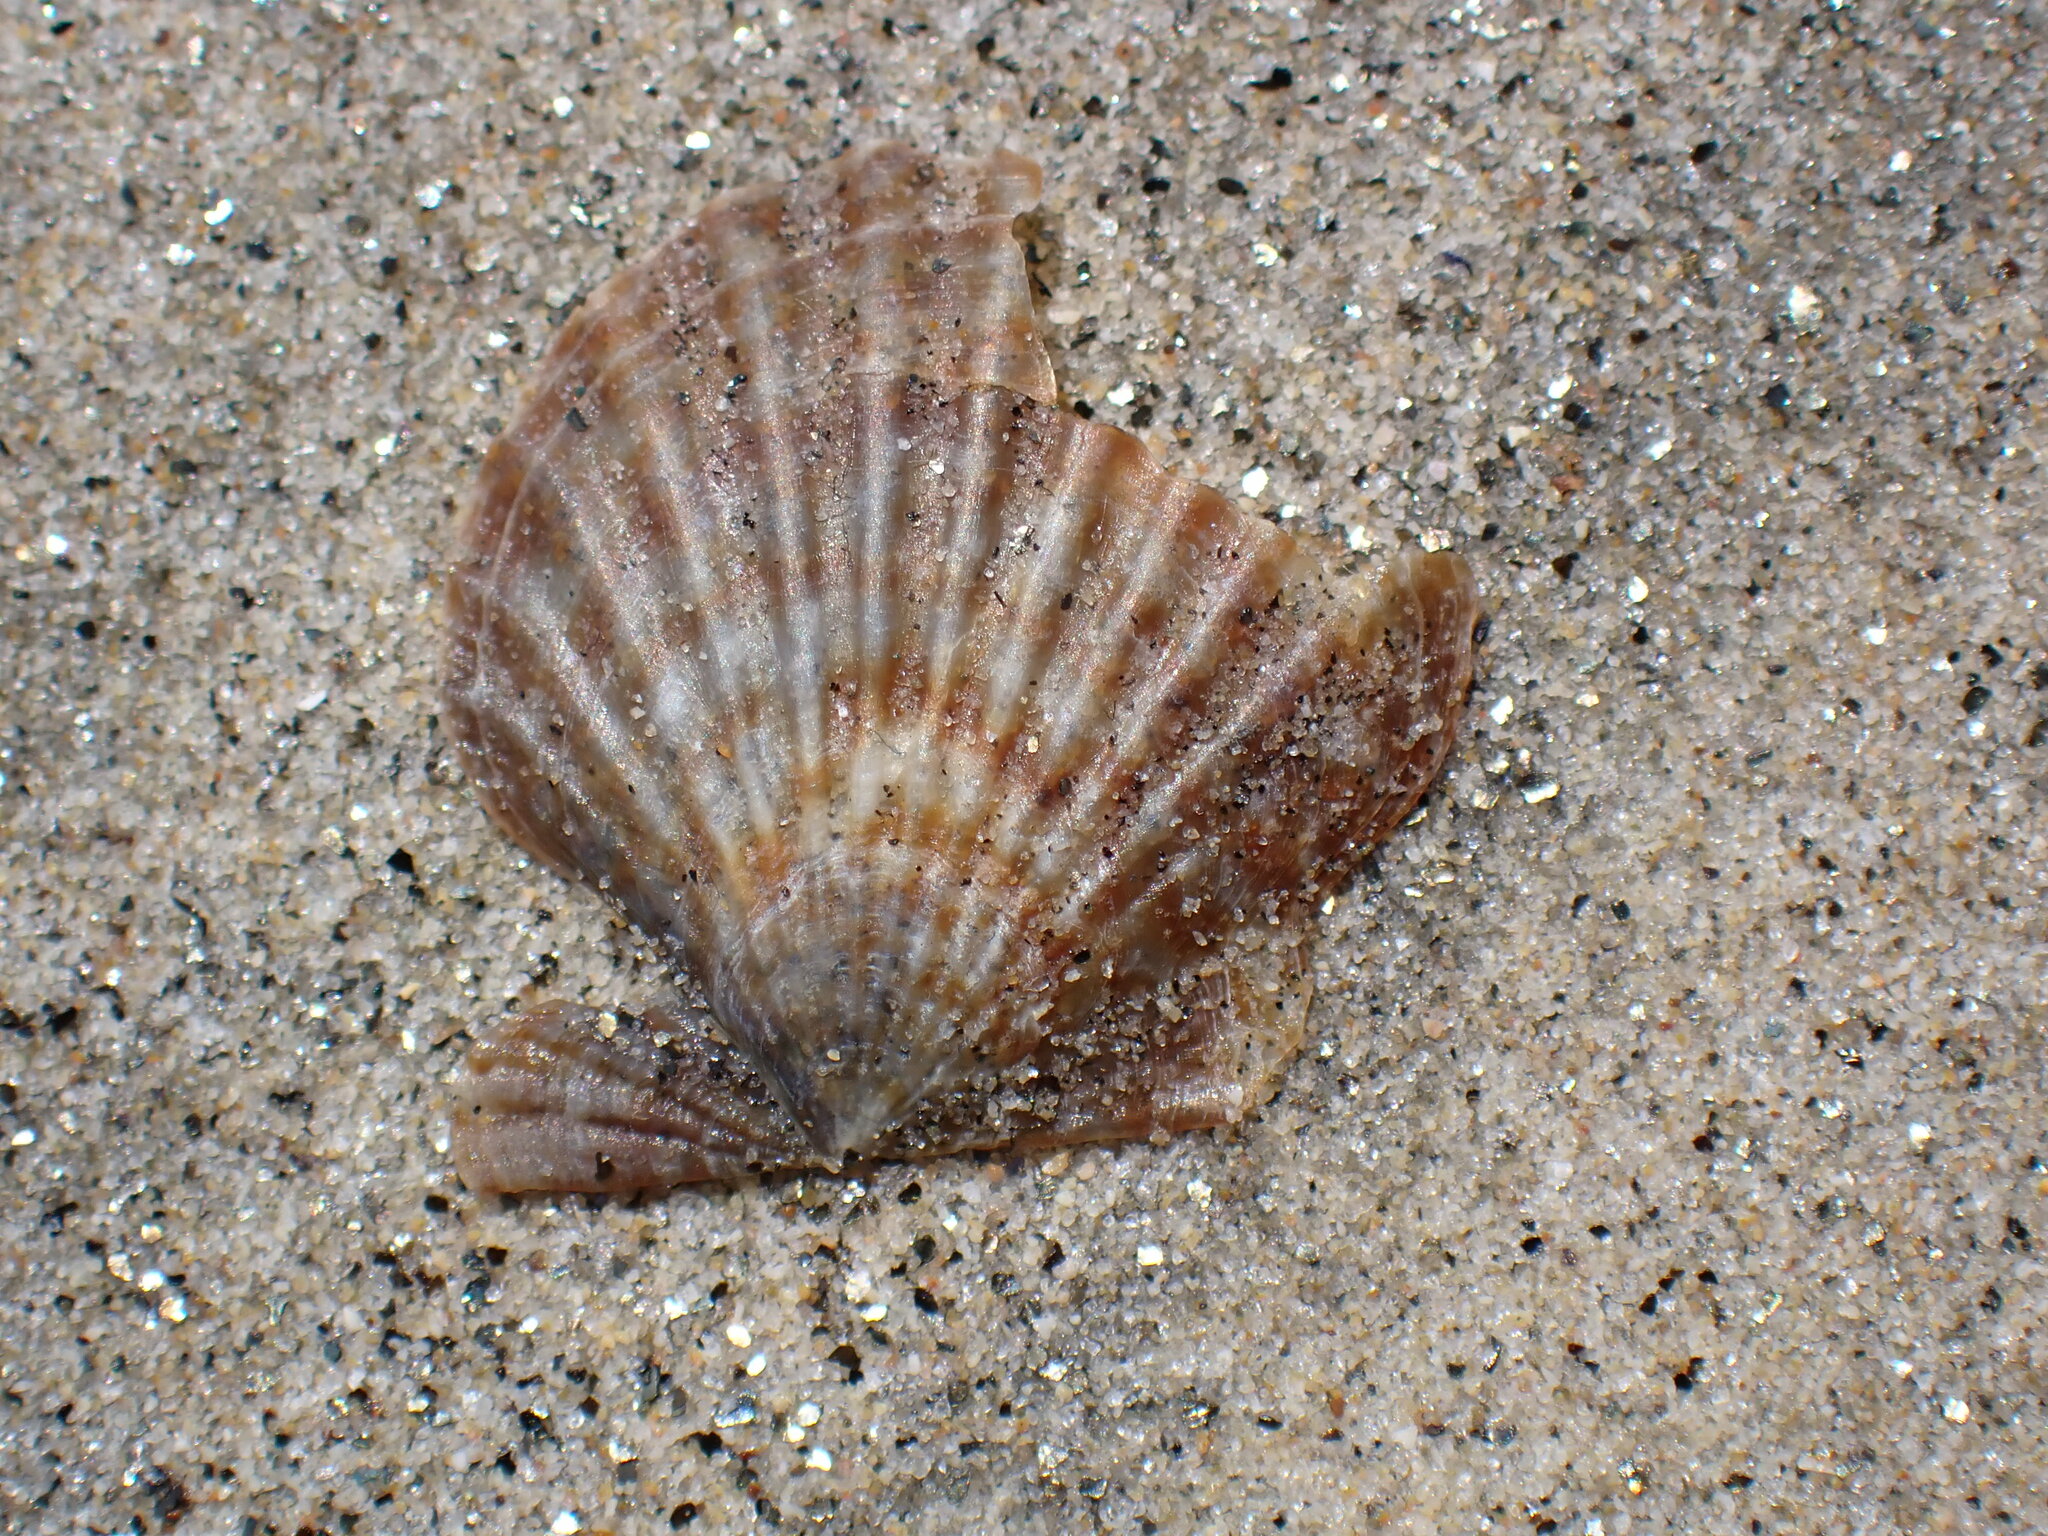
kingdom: Animalia
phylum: Mollusca
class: Bivalvia
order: Pectinida
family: Pectinidae
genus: Leptopecten
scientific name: Leptopecten latiauratus
